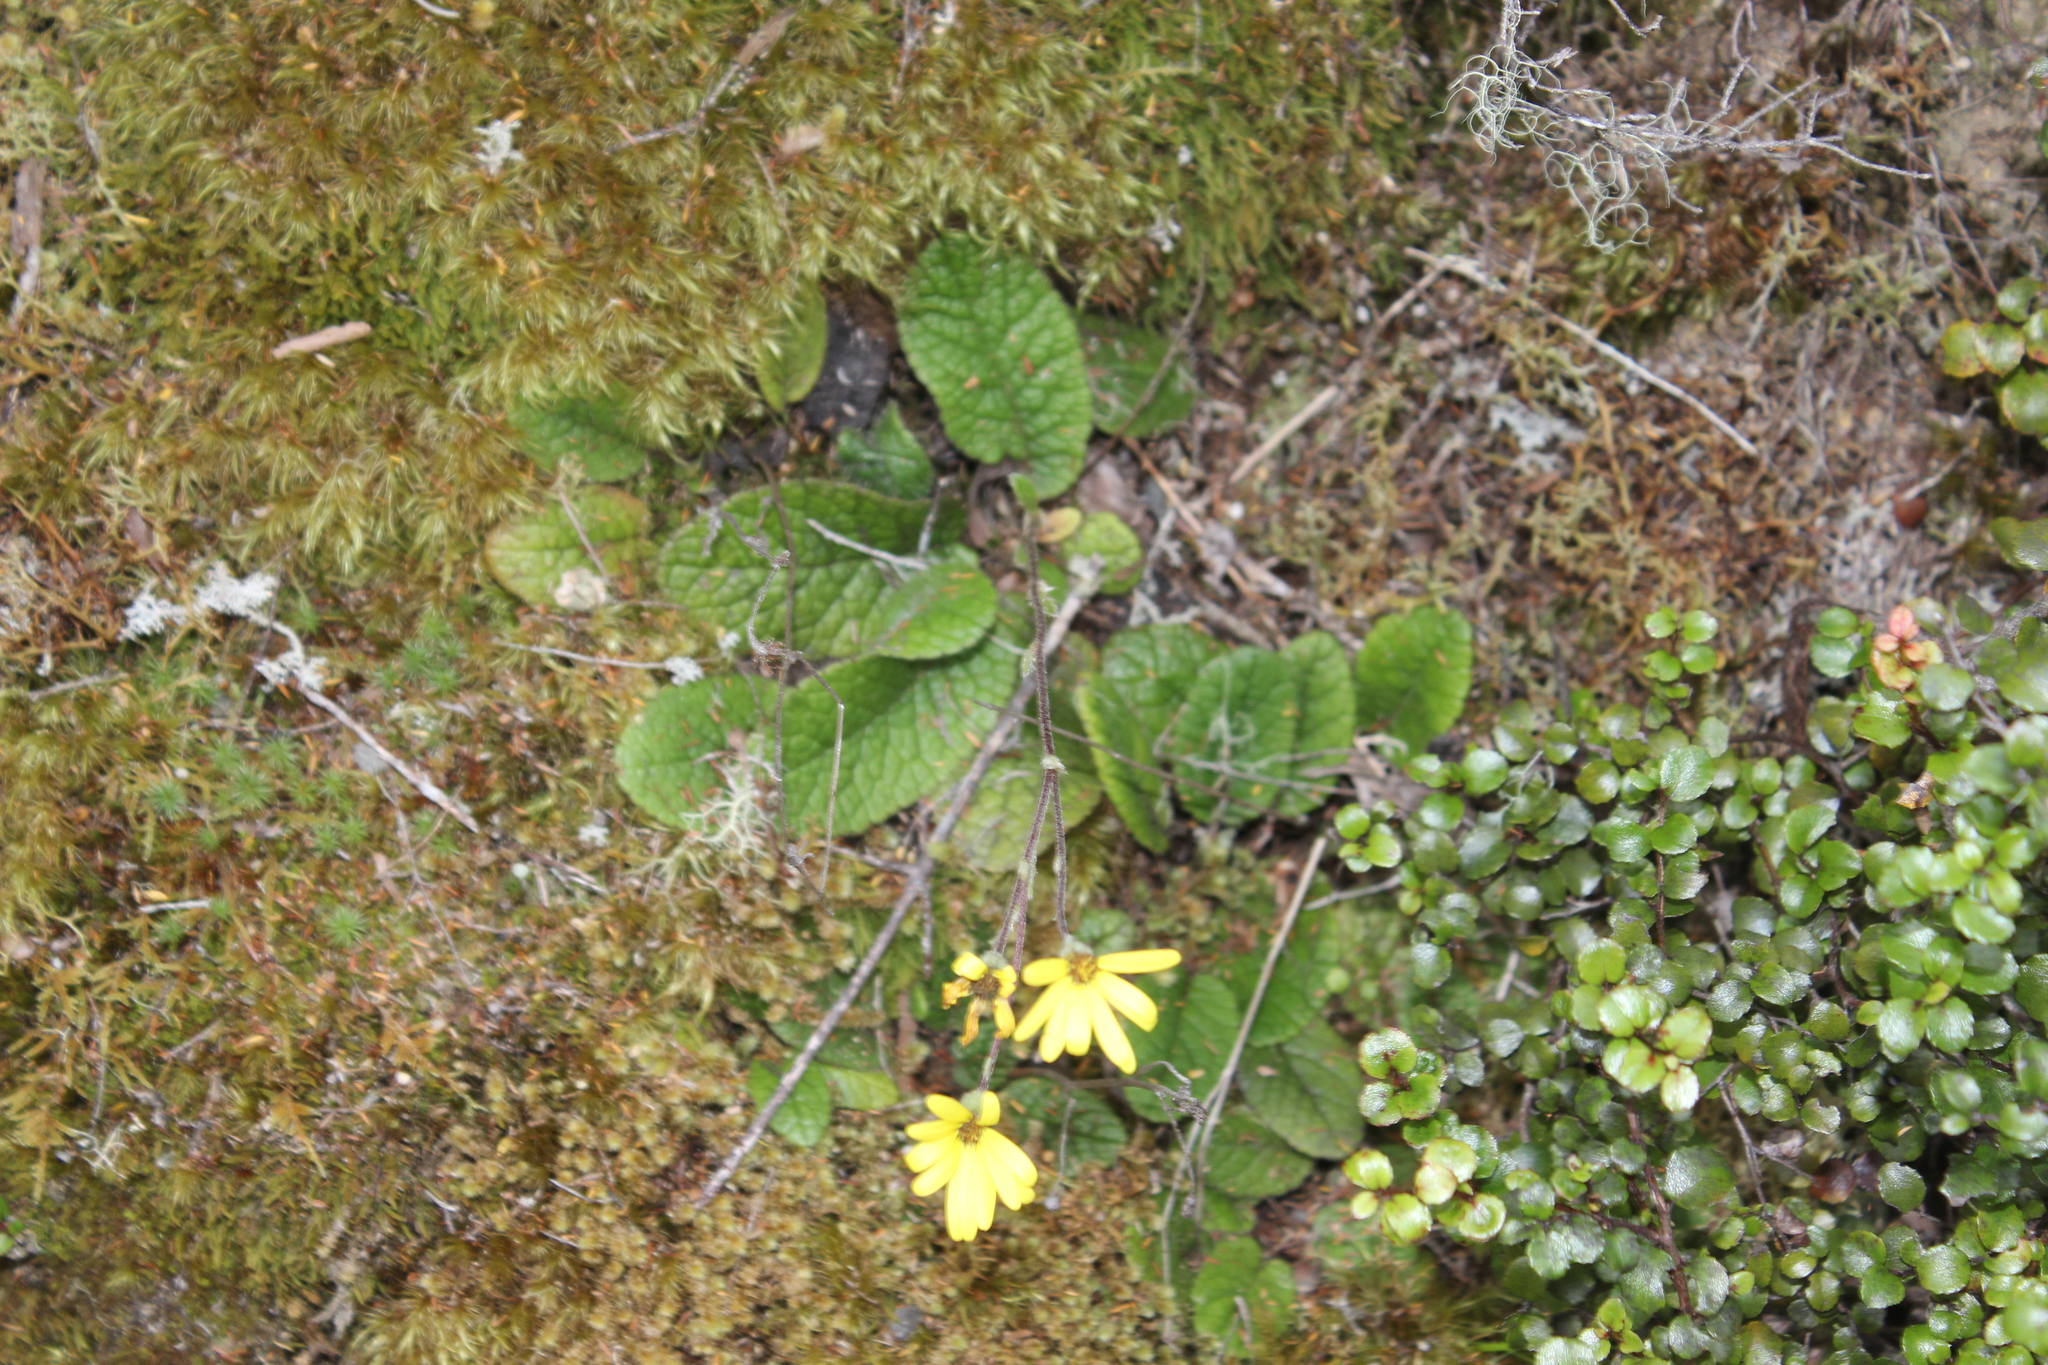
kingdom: Plantae
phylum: Tracheophyta
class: Magnoliopsida
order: Asterales
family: Asteraceae
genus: Brachyglottis
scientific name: Brachyglottis lagopus
